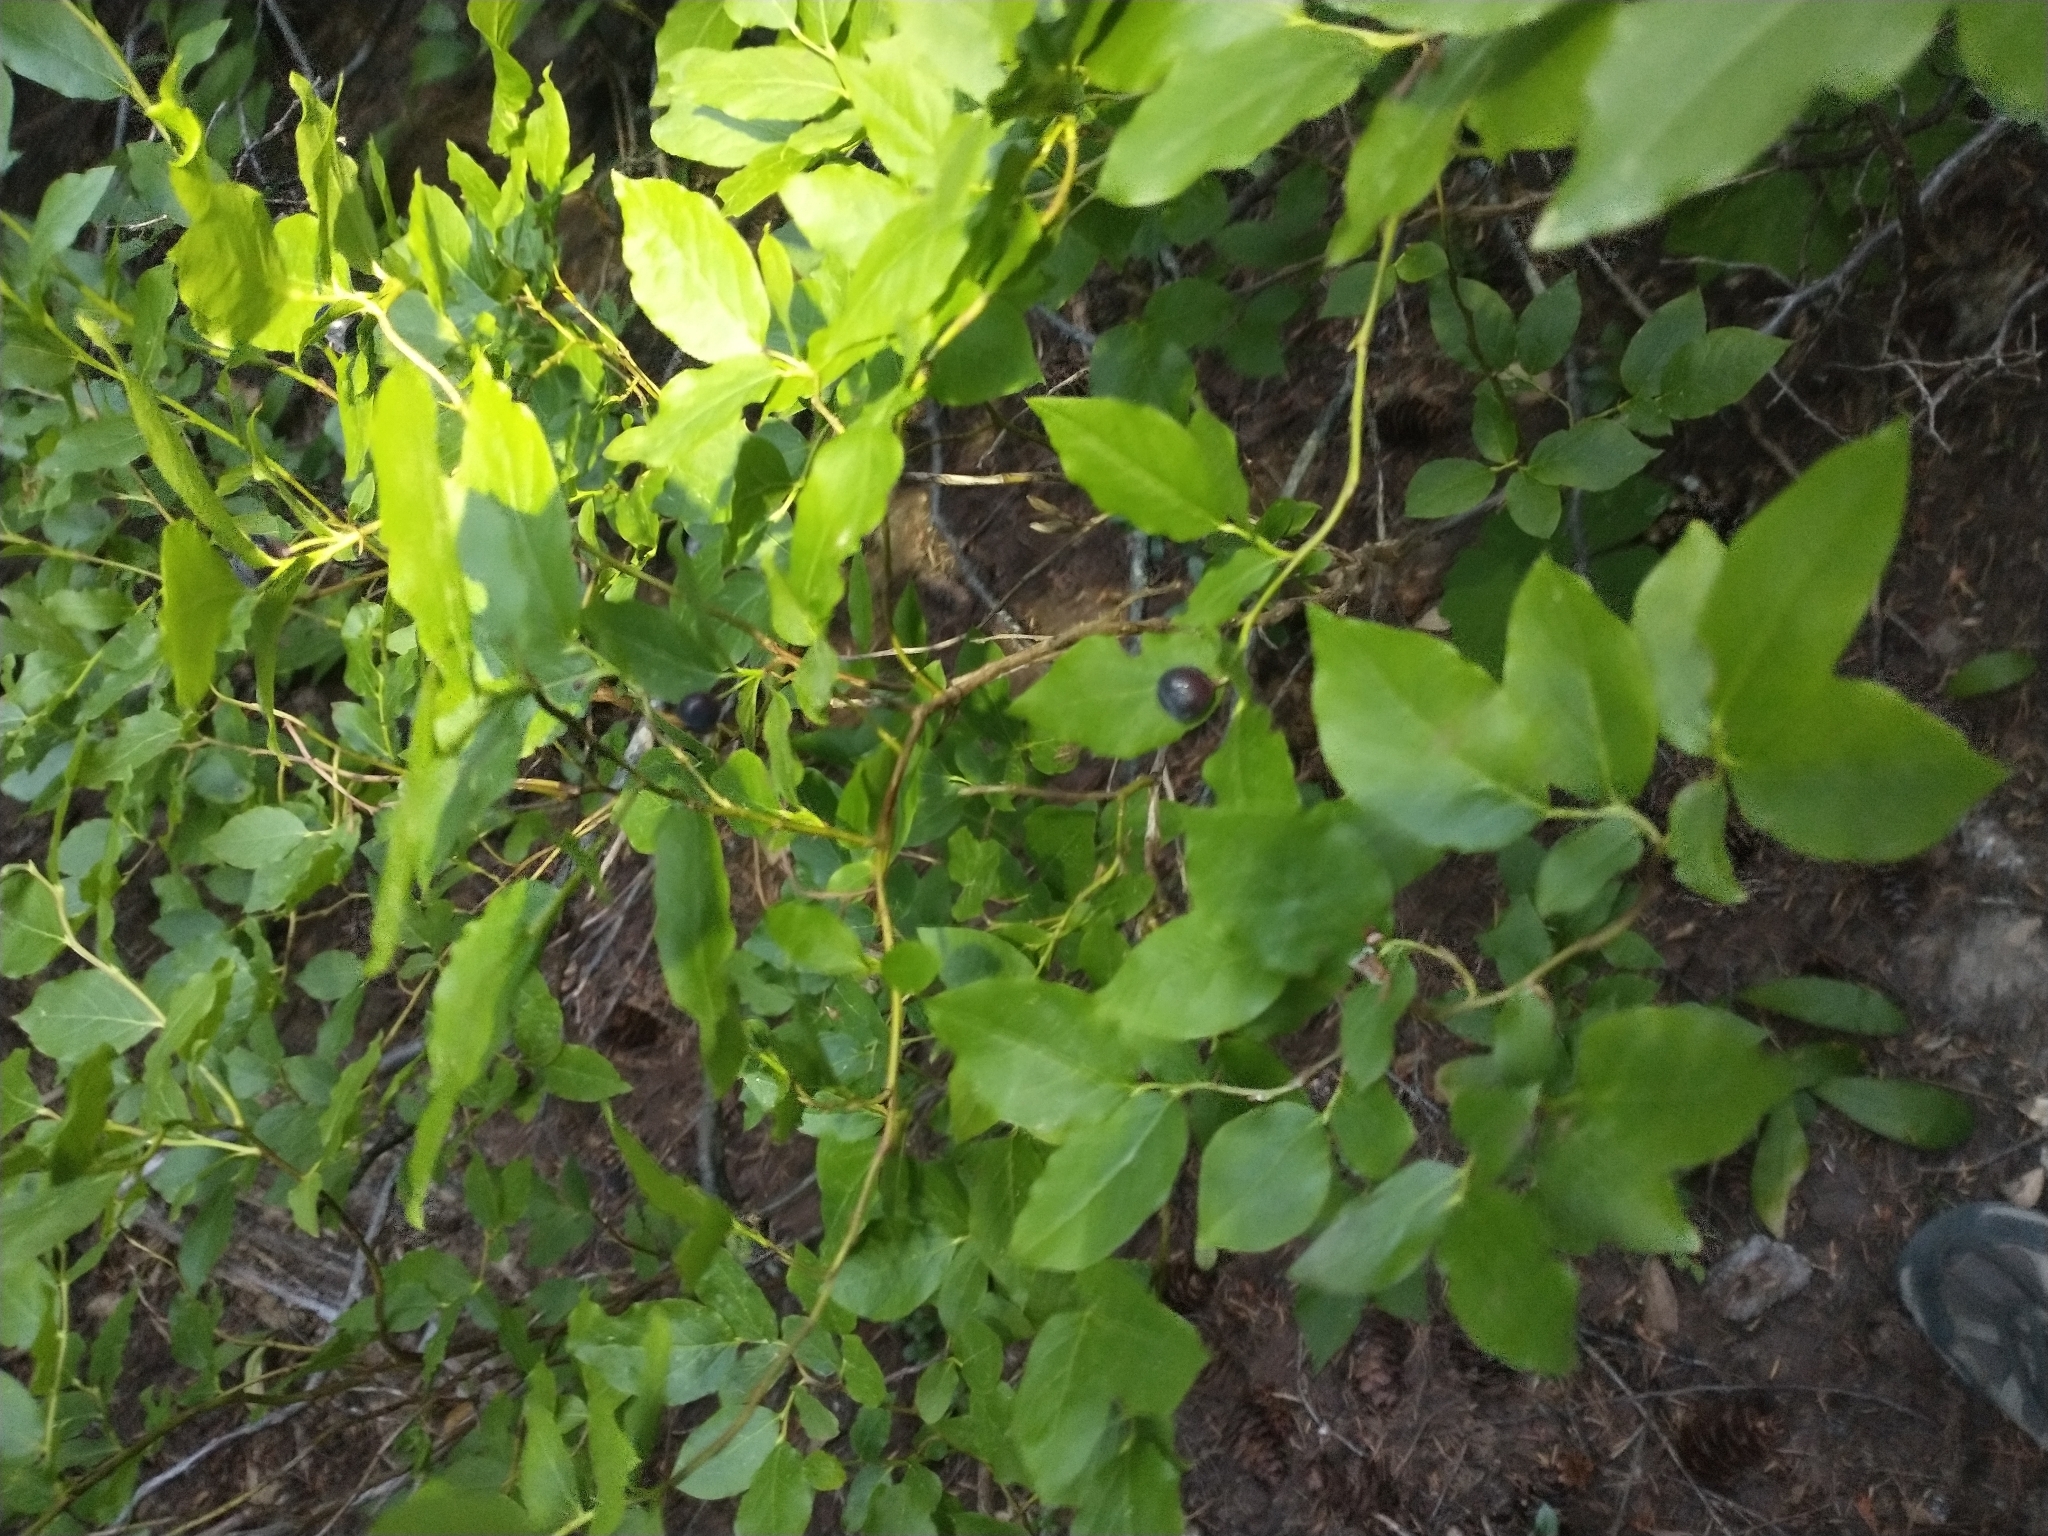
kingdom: Plantae
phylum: Tracheophyta
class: Magnoliopsida
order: Ericales
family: Ericaceae
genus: Vaccinium
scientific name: Vaccinium membranaceum
